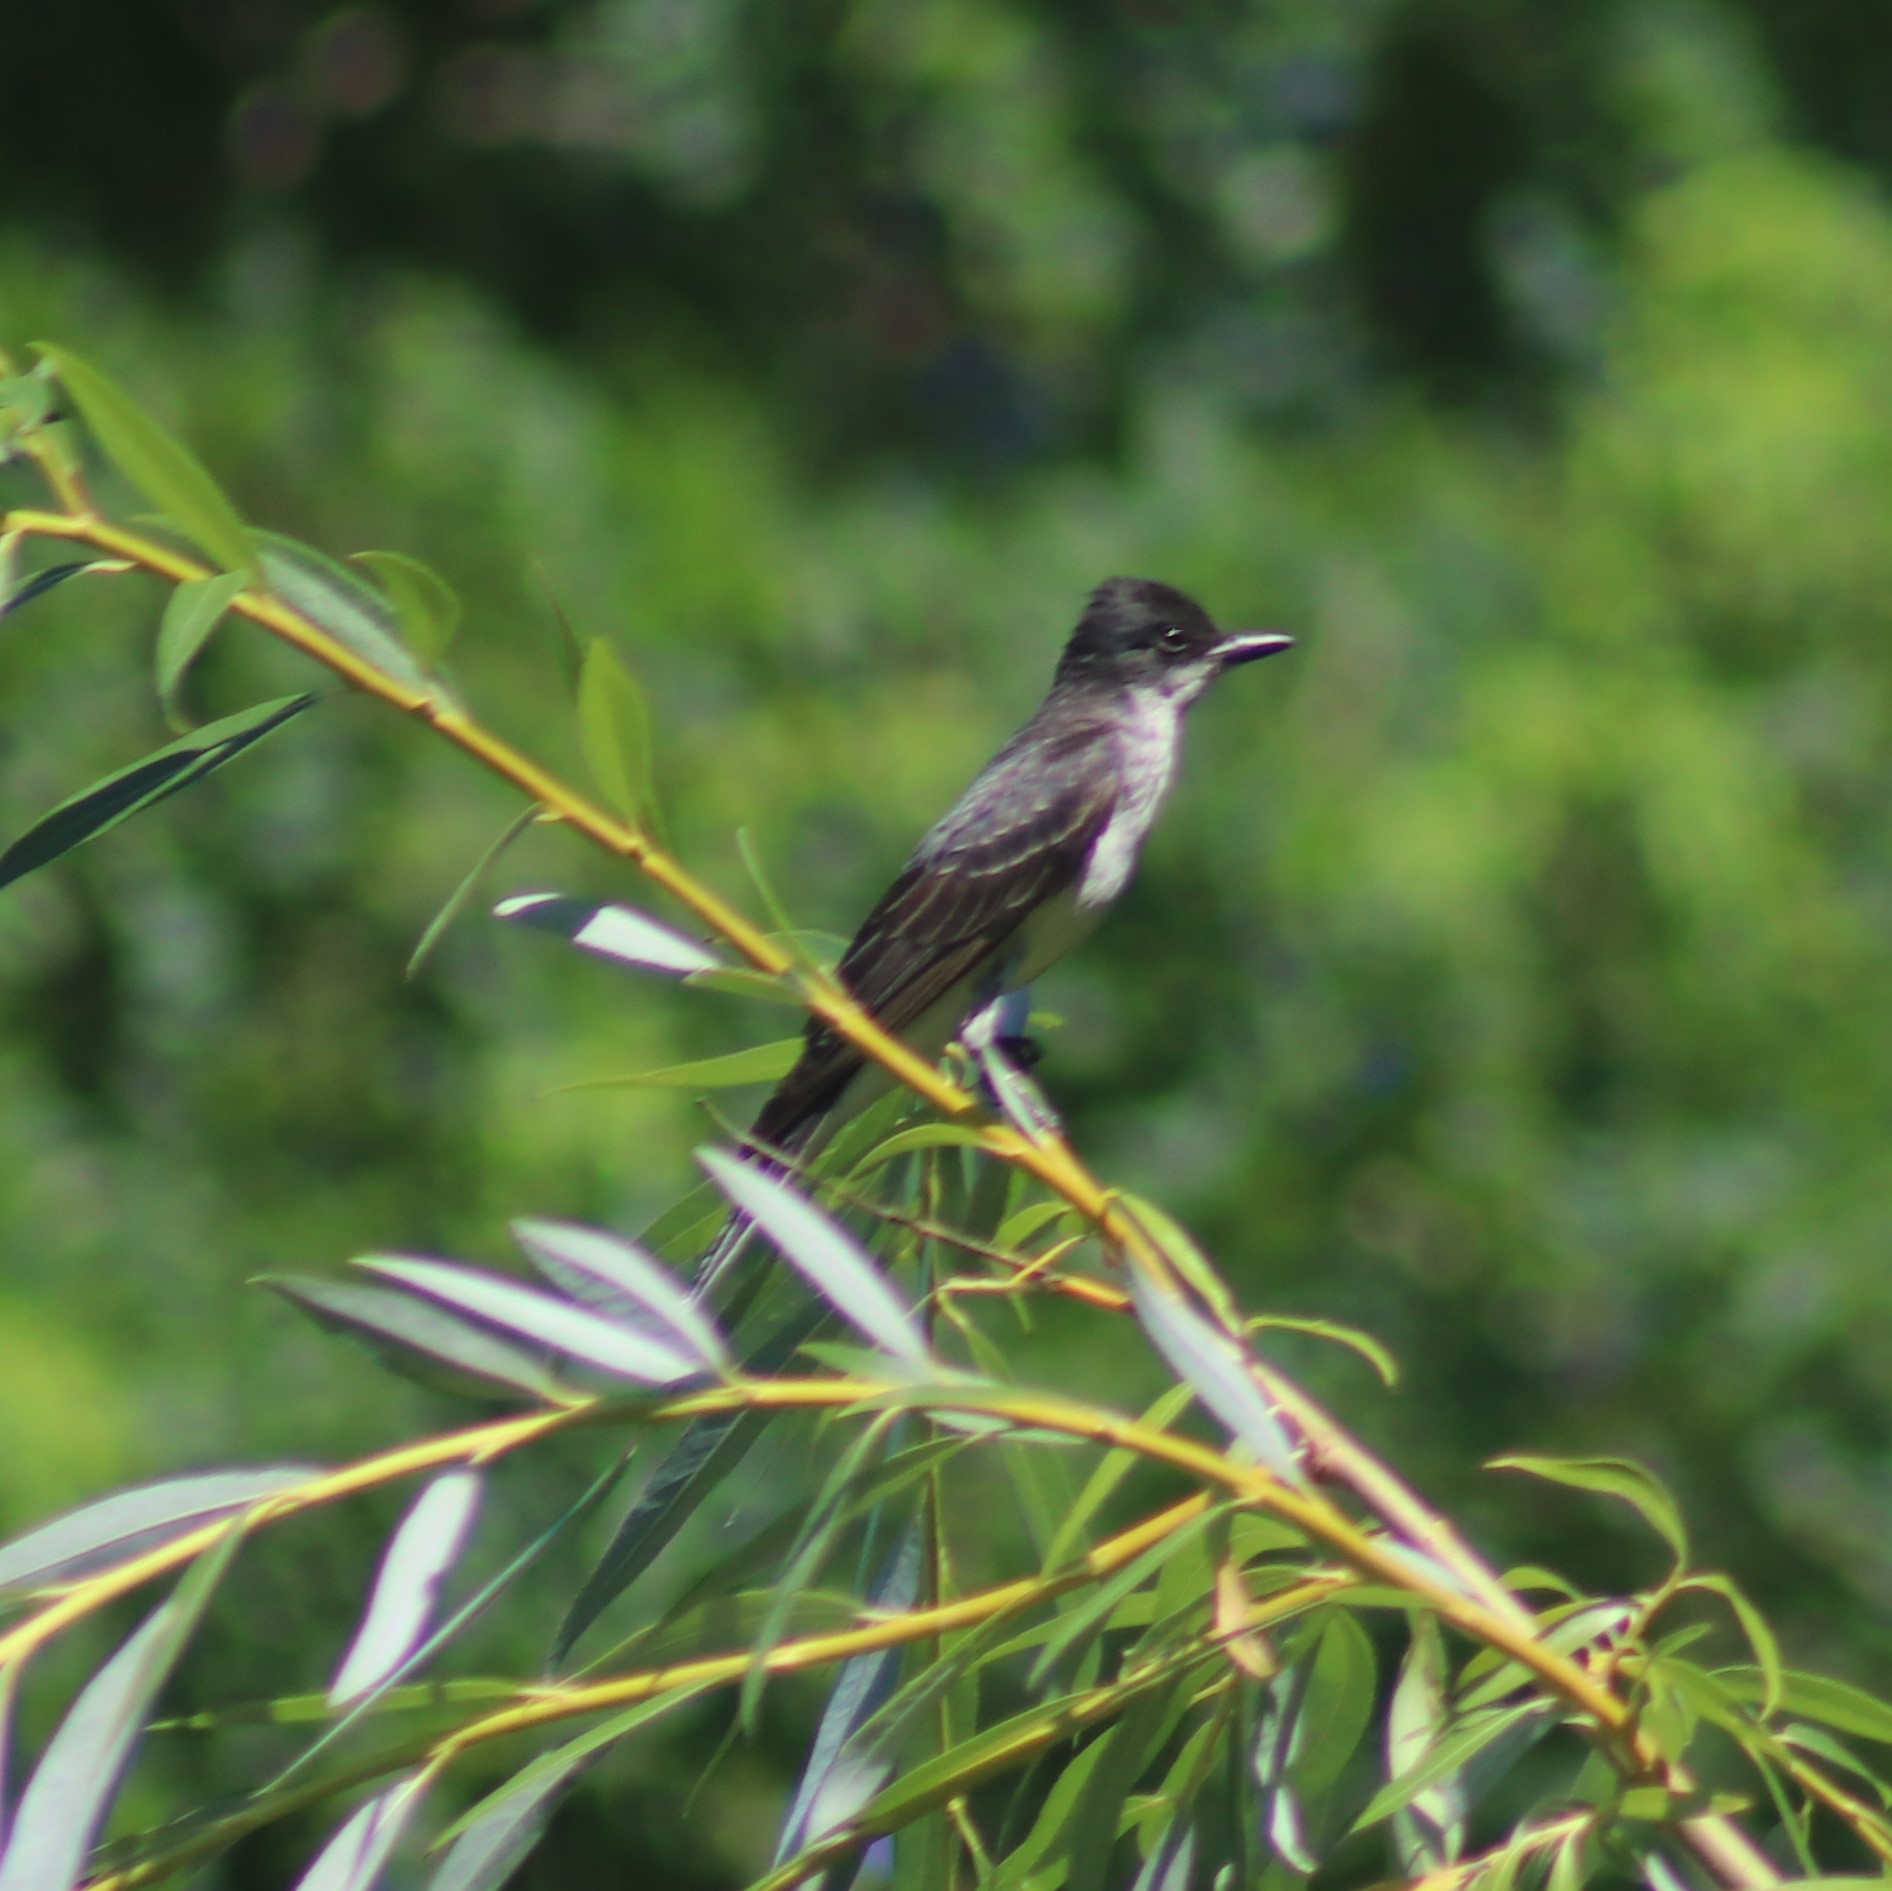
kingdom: Animalia
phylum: Chordata
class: Aves
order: Passeriformes
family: Tyrannidae
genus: Tyrannus
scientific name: Tyrannus tyrannus
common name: Eastern kingbird
